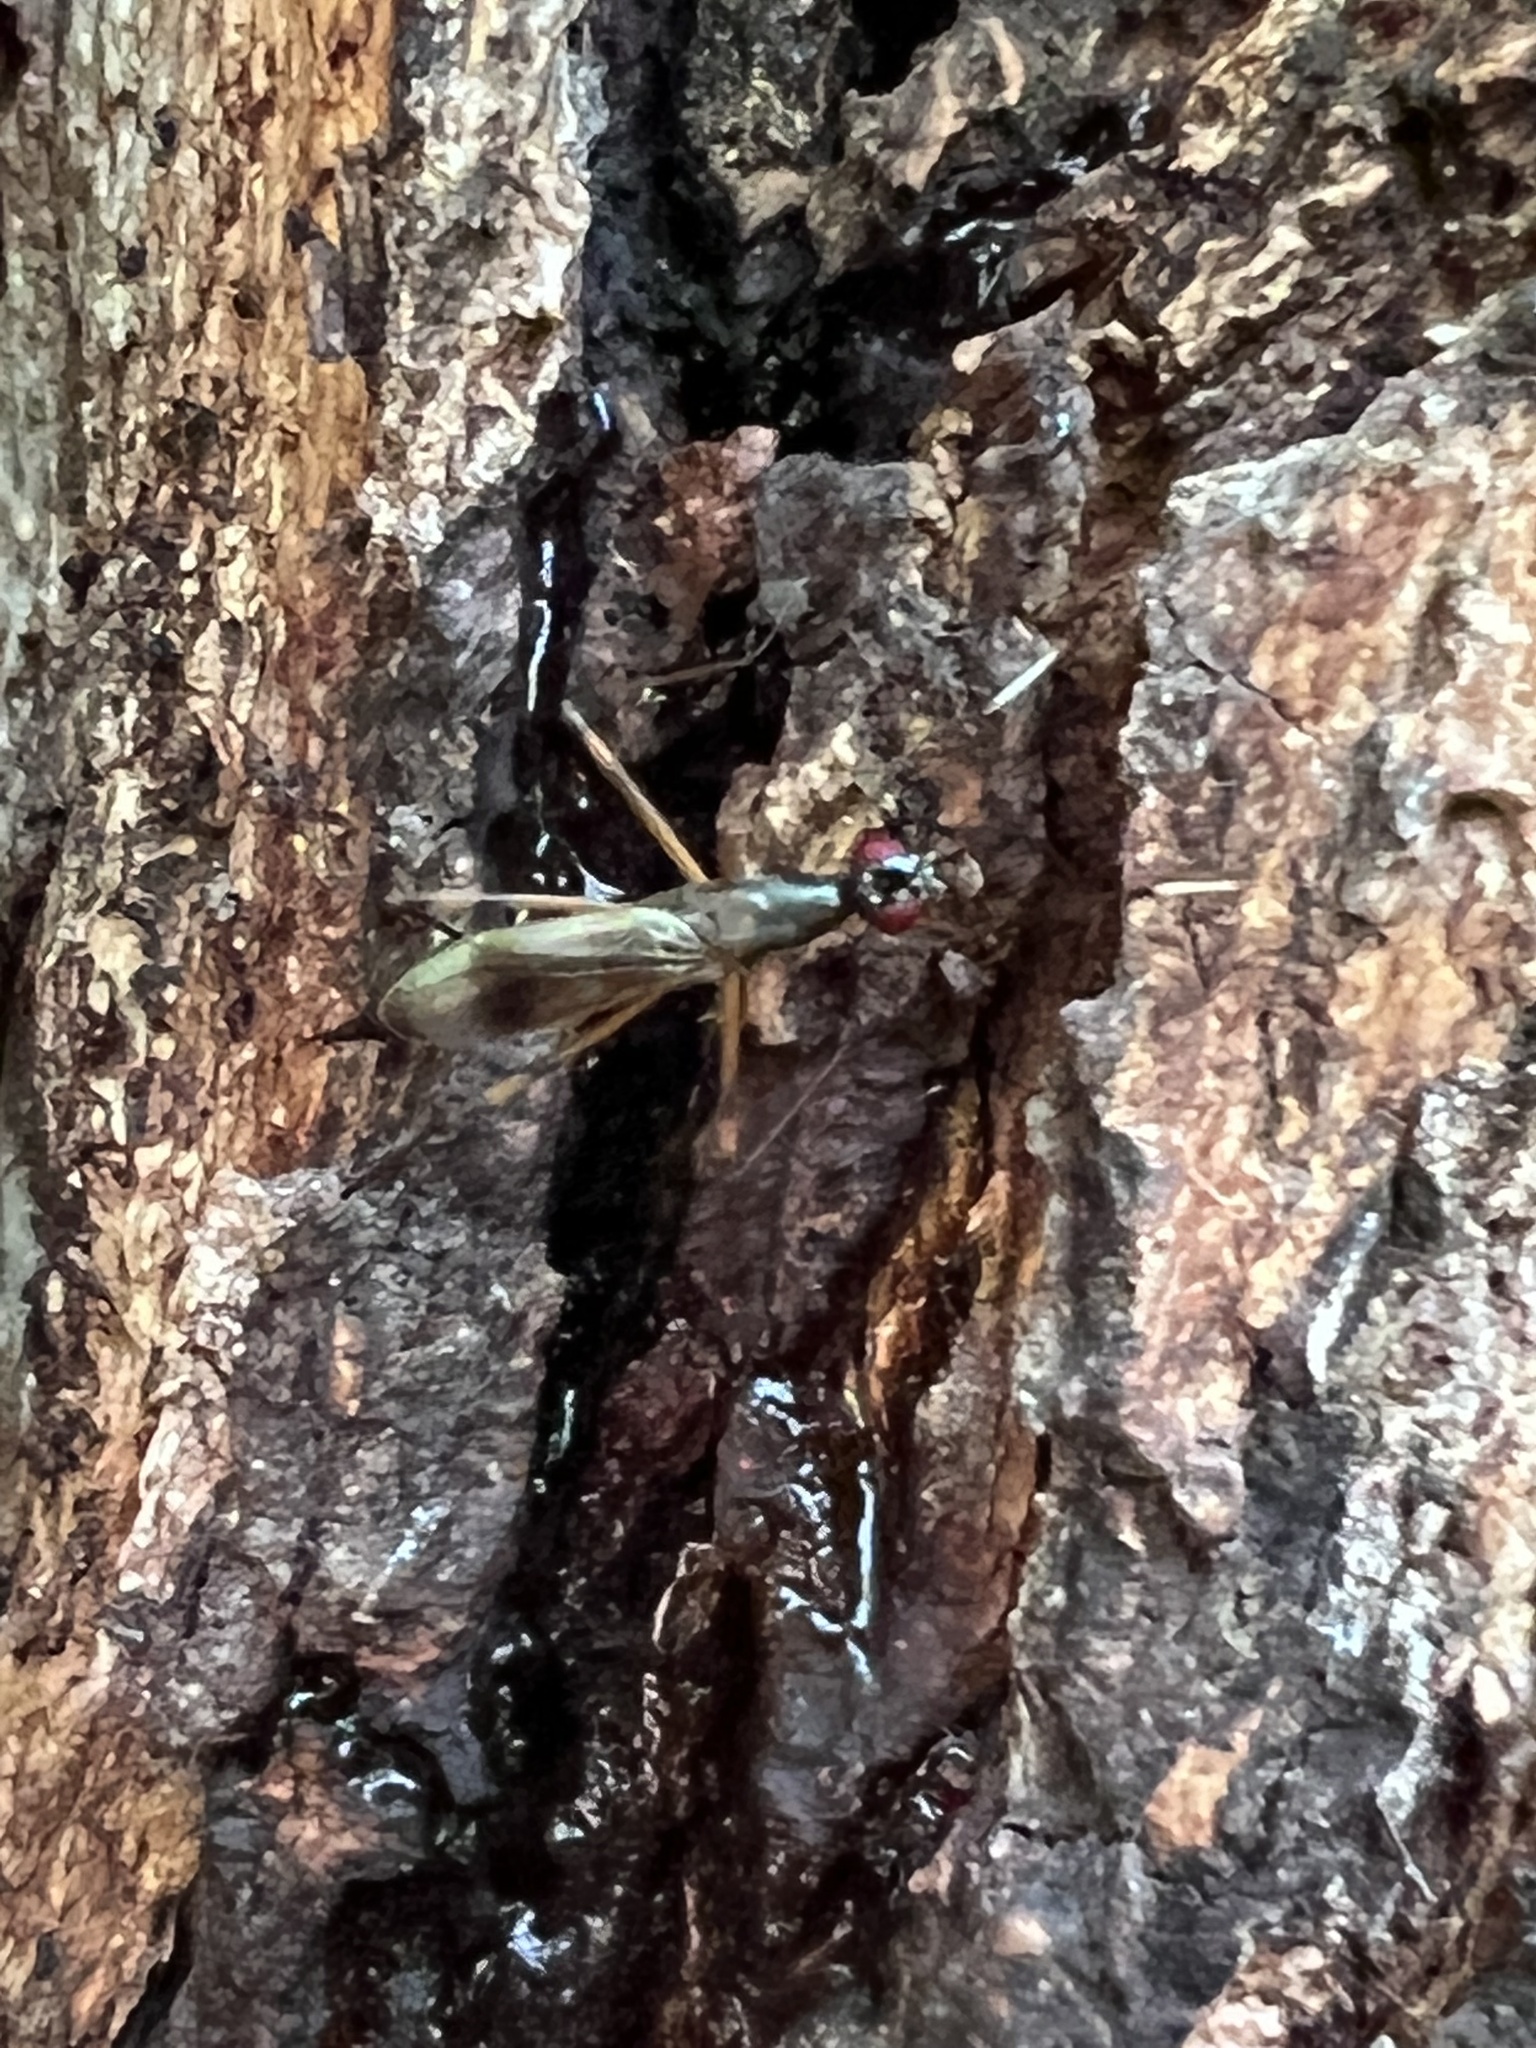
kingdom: Animalia
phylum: Arthropoda
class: Insecta
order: Diptera
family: Micropezidae
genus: Rainieria
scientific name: Rainieria antennaepes
